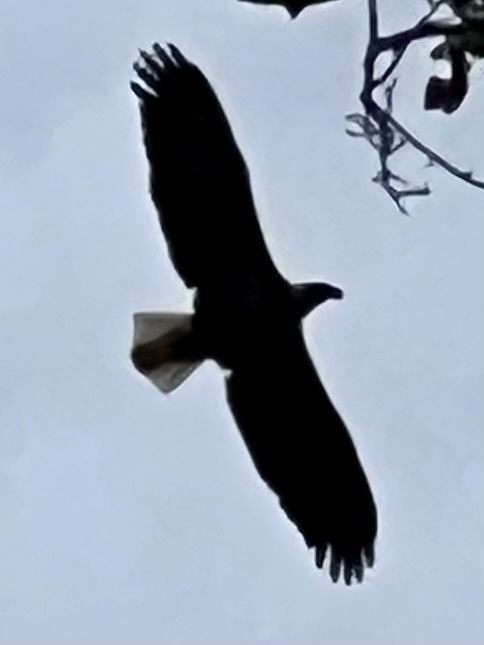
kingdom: Animalia
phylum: Chordata
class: Aves
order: Accipitriformes
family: Accipitridae
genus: Haliaeetus
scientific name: Haliaeetus leucocephalus
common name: Bald eagle
